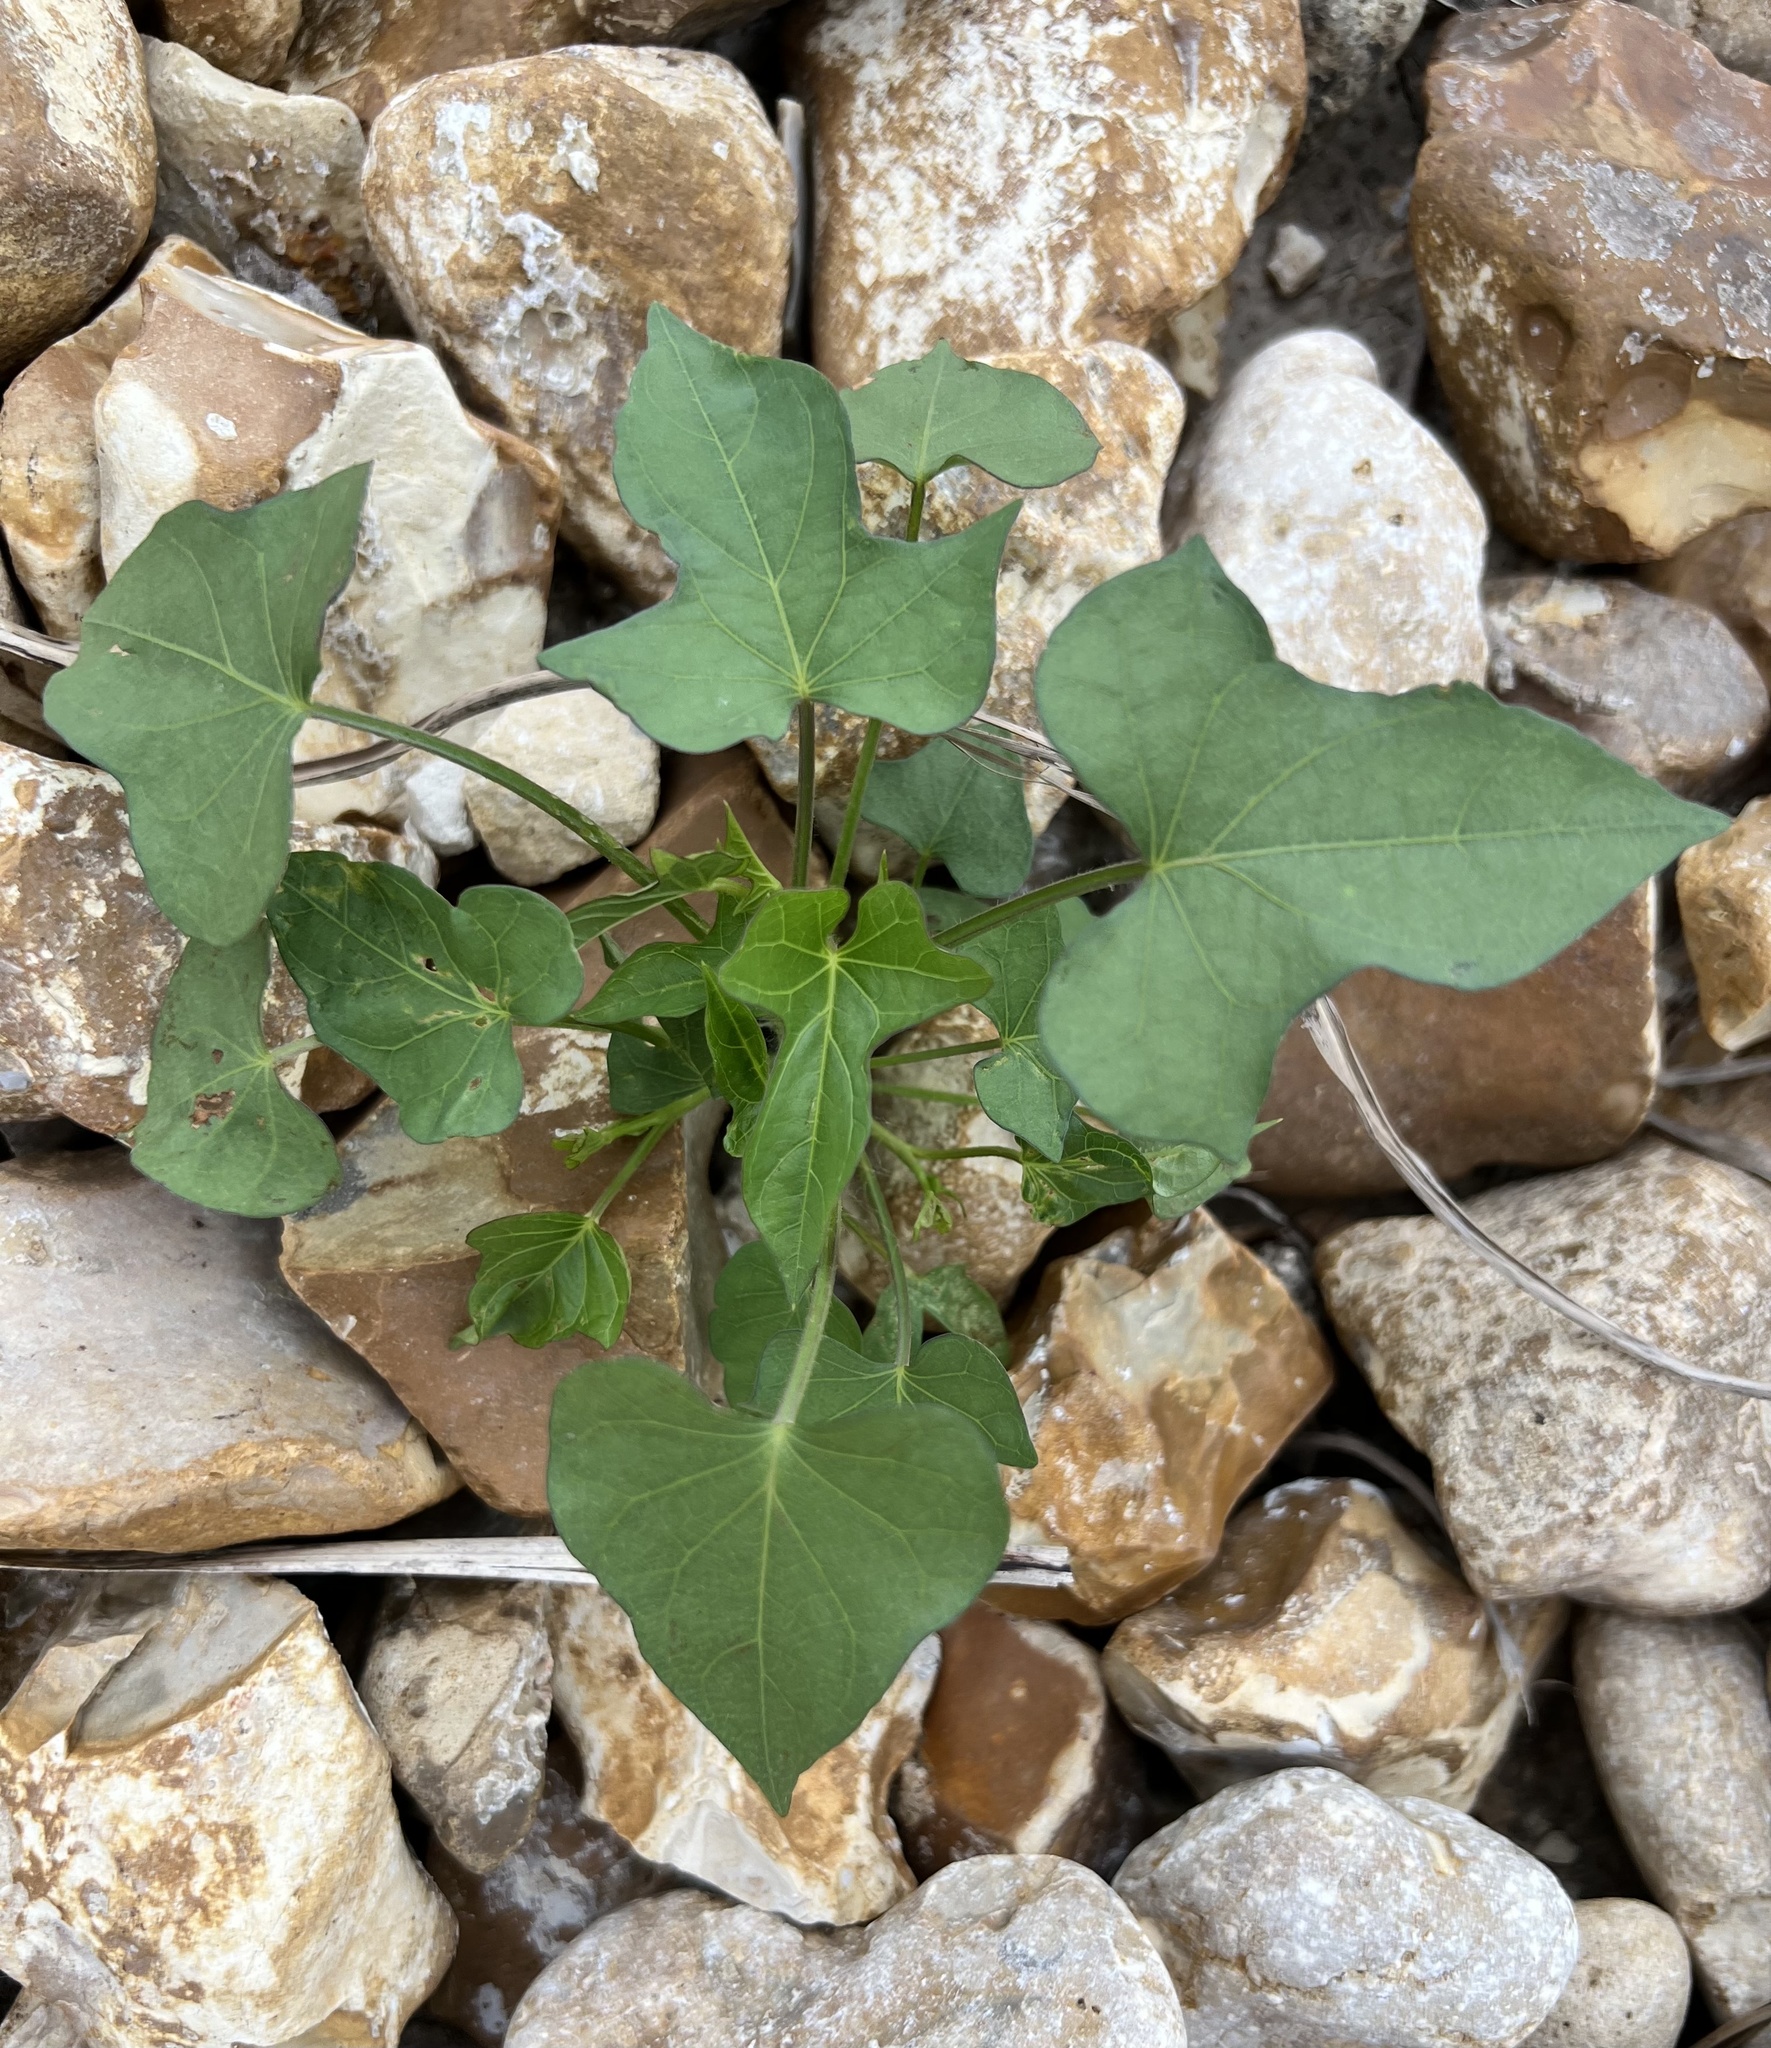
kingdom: Plantae
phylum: Tracheophyta
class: Magnoliopsida
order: Solanales
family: Convolvulaceae
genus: Ipomoea
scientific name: Ipomoea cordatotriloba
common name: Cotton morning glory
